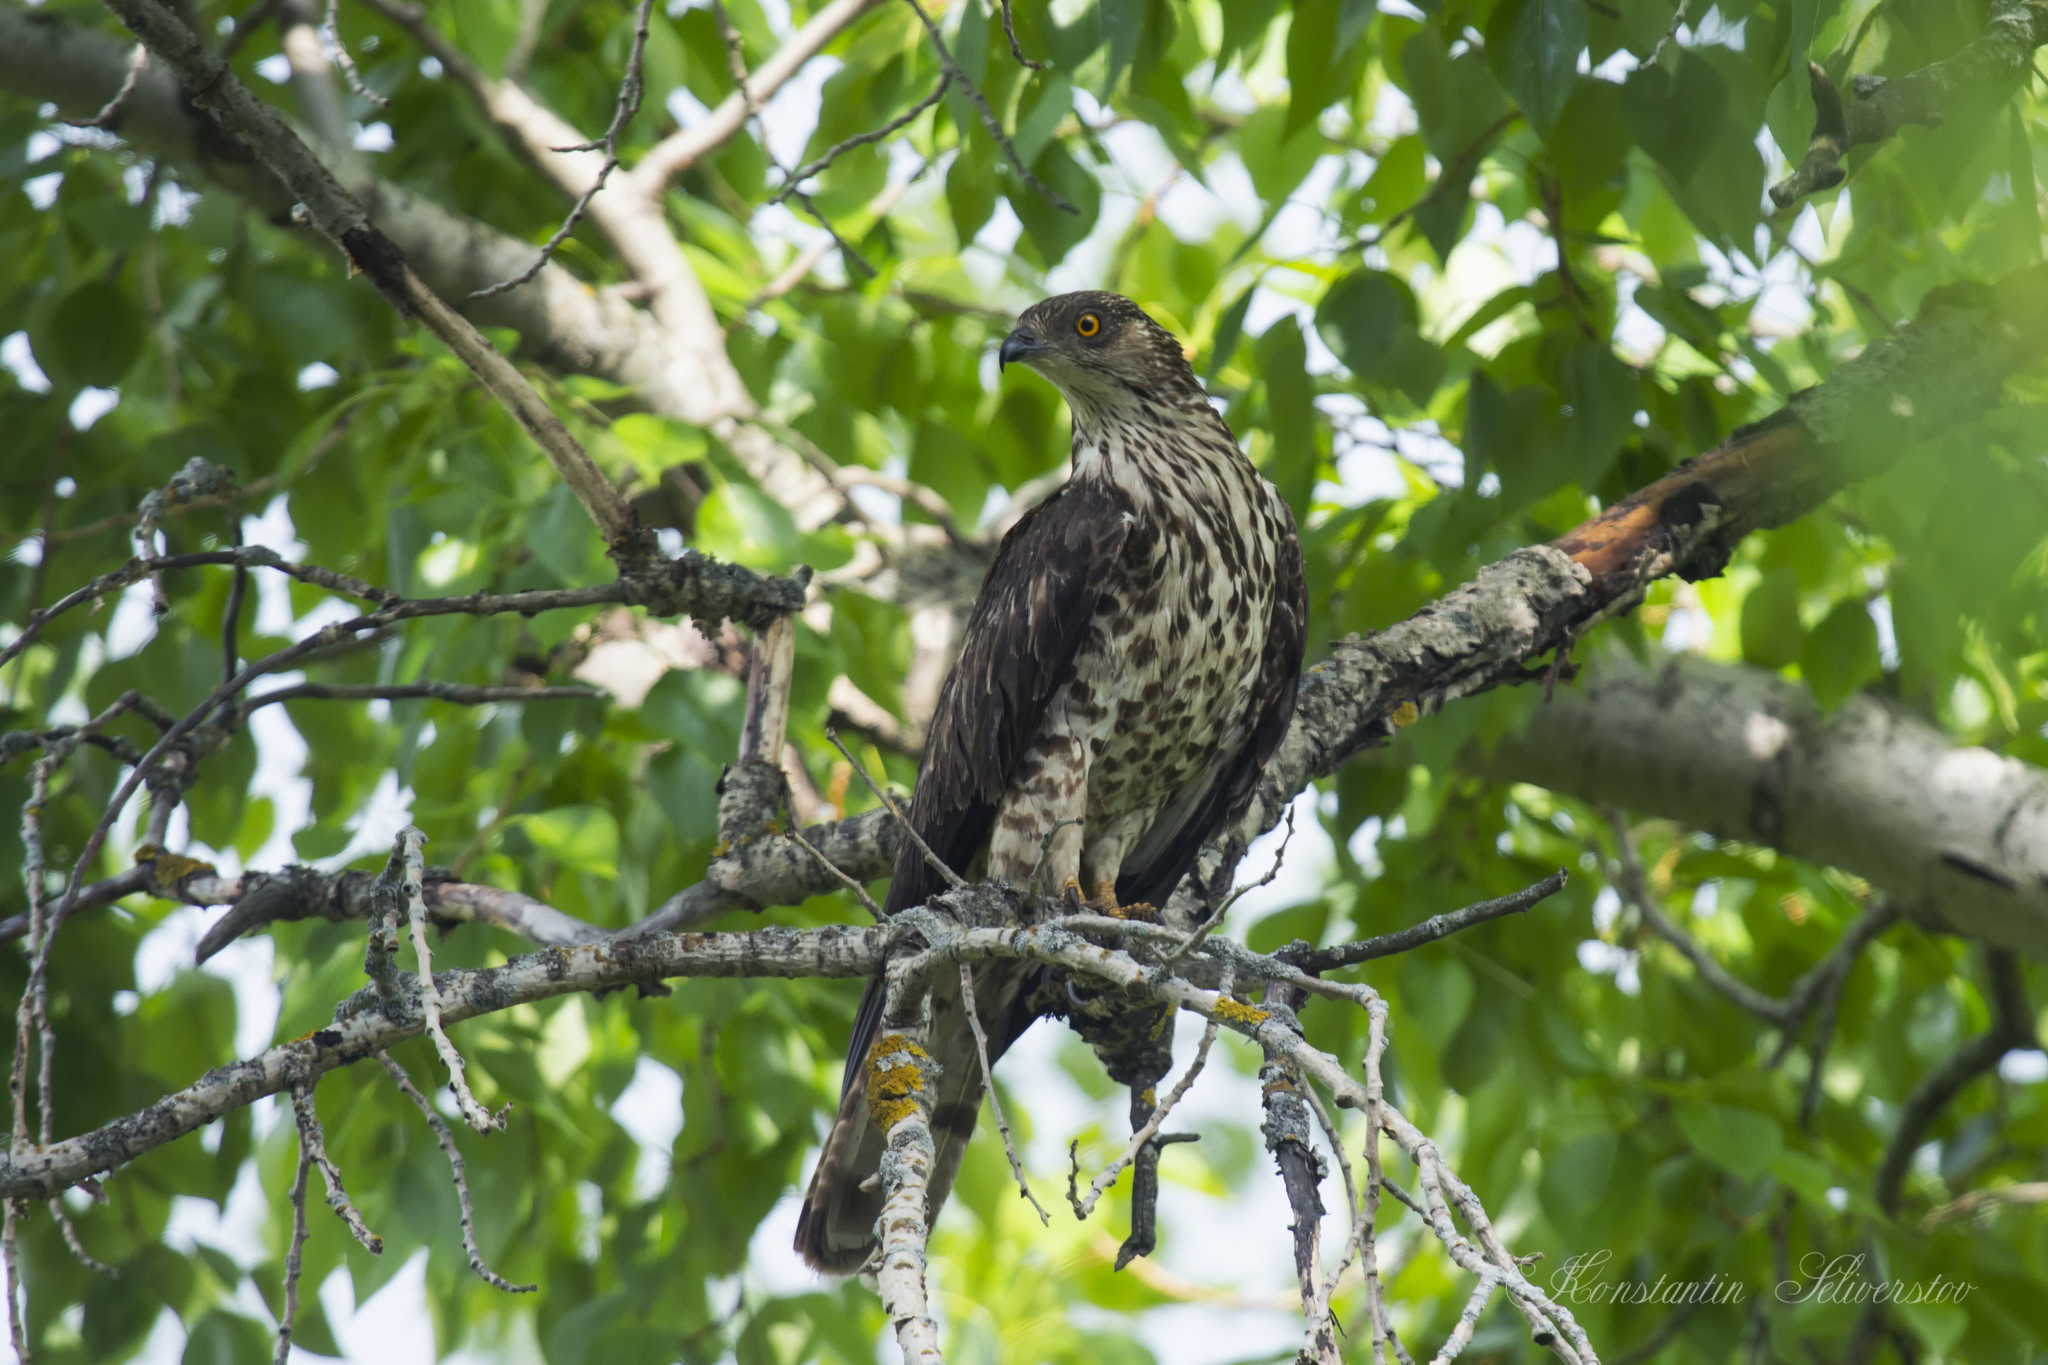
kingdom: Animalia
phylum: Chordata
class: Aves
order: Accipitriformes
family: Accipitridae
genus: Pernis
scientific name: Pernis apivorus
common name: European honey buzzard
